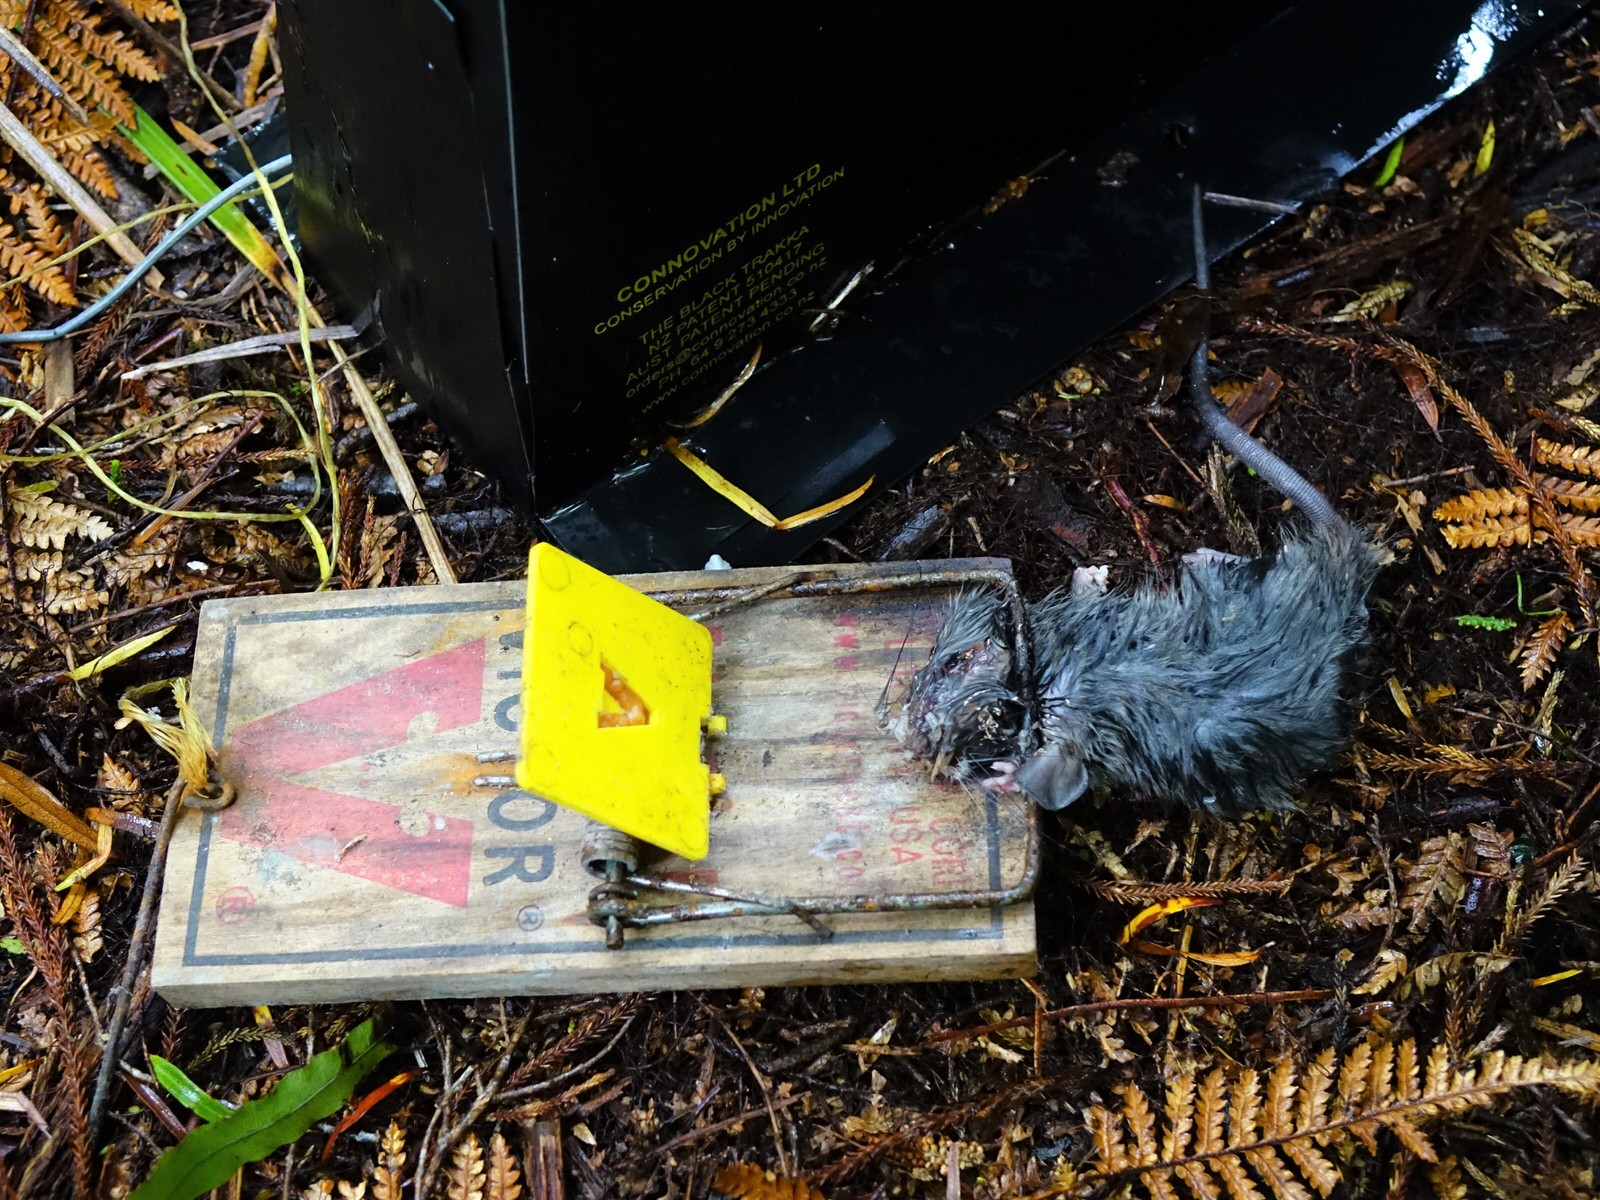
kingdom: Animalia
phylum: Chordata
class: Mammalia
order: Rodentia
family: Muridae
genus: Rattus
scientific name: Rattus
